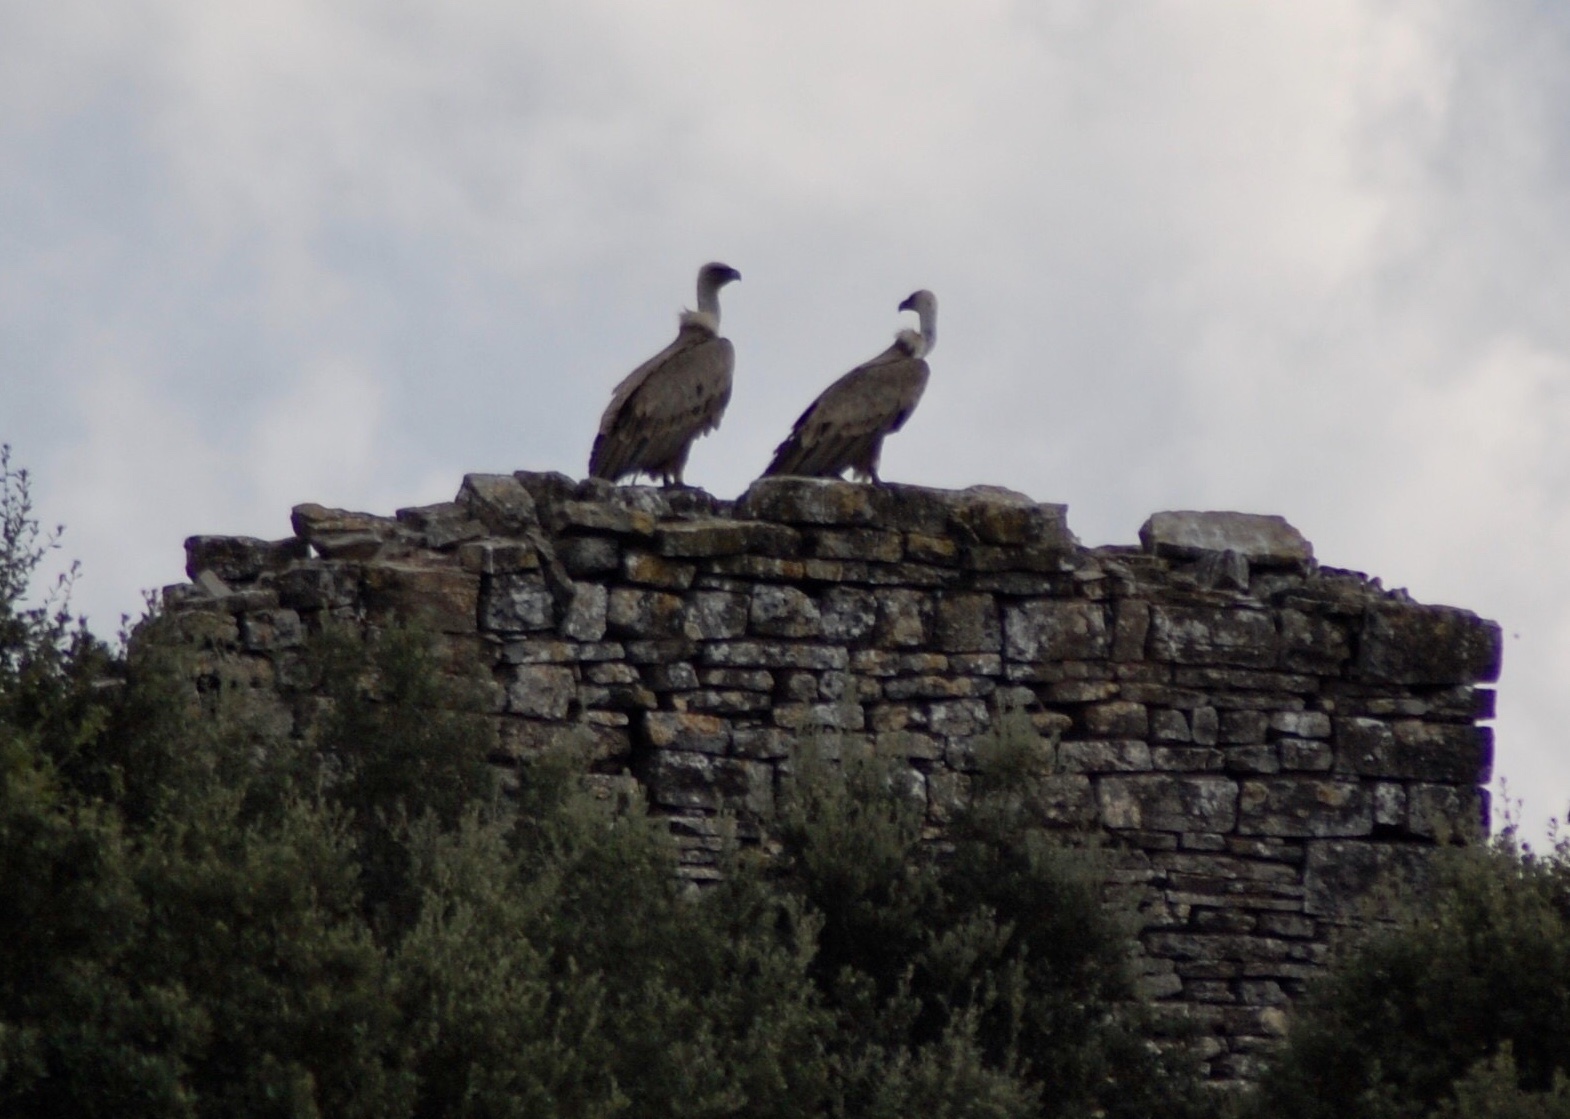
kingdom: Animalia
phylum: Chordata
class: Aves
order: Accipitriformes
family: Accipitridae
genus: Gyps
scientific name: Gyps fulvus
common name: Griffon vulture
